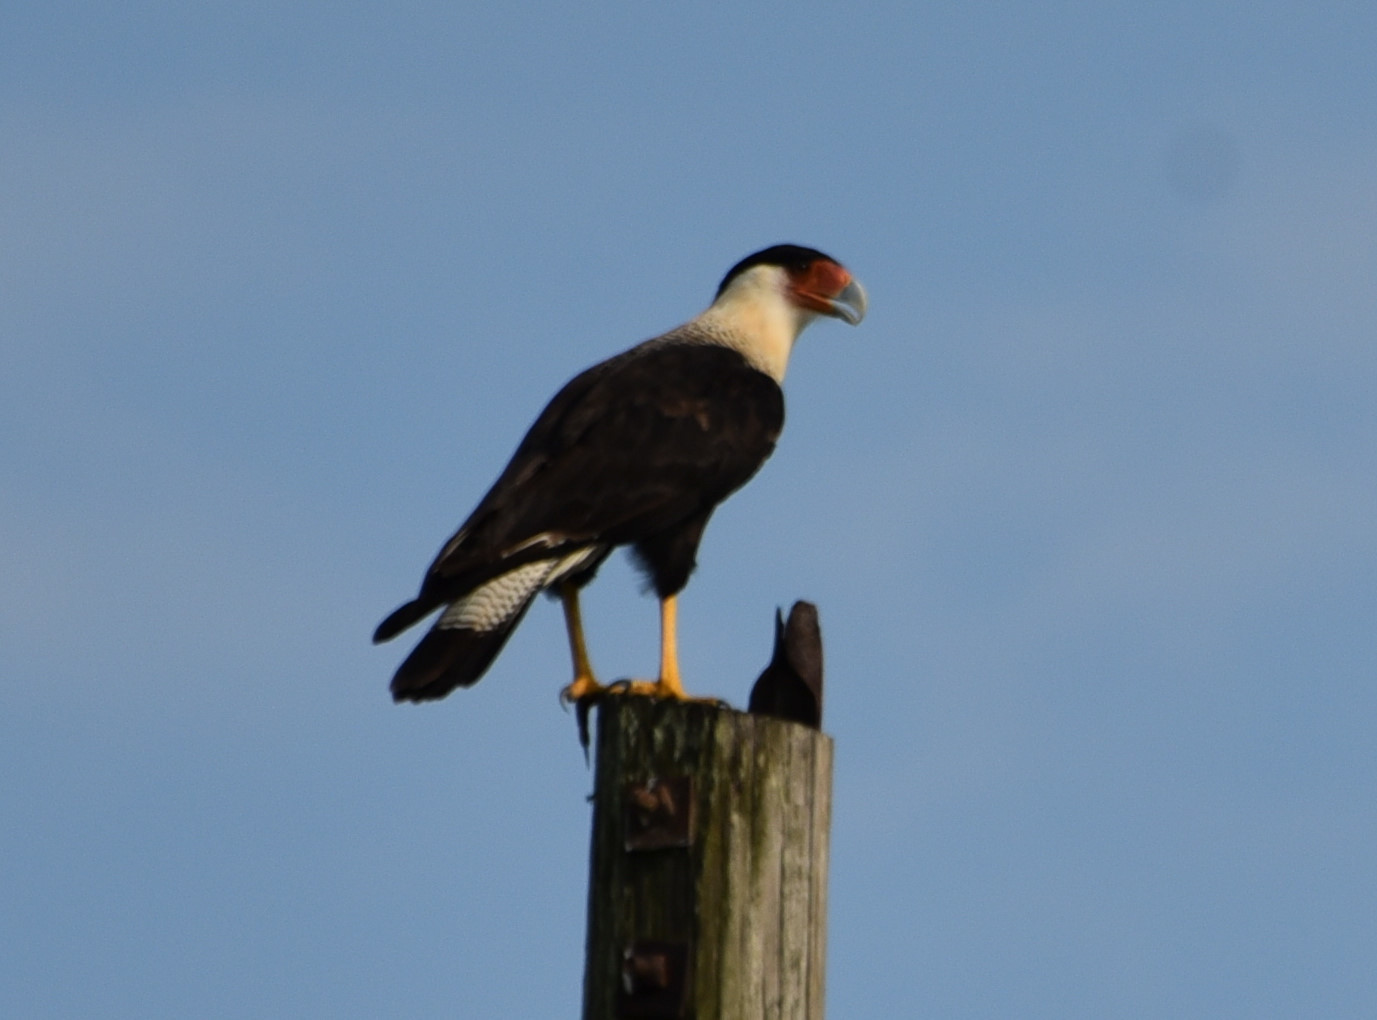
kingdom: Animalia
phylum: Chordata
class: Aves
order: Falconiformes
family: Falconidae
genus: Caracara
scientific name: Caracara plancus
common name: Southern caracara
